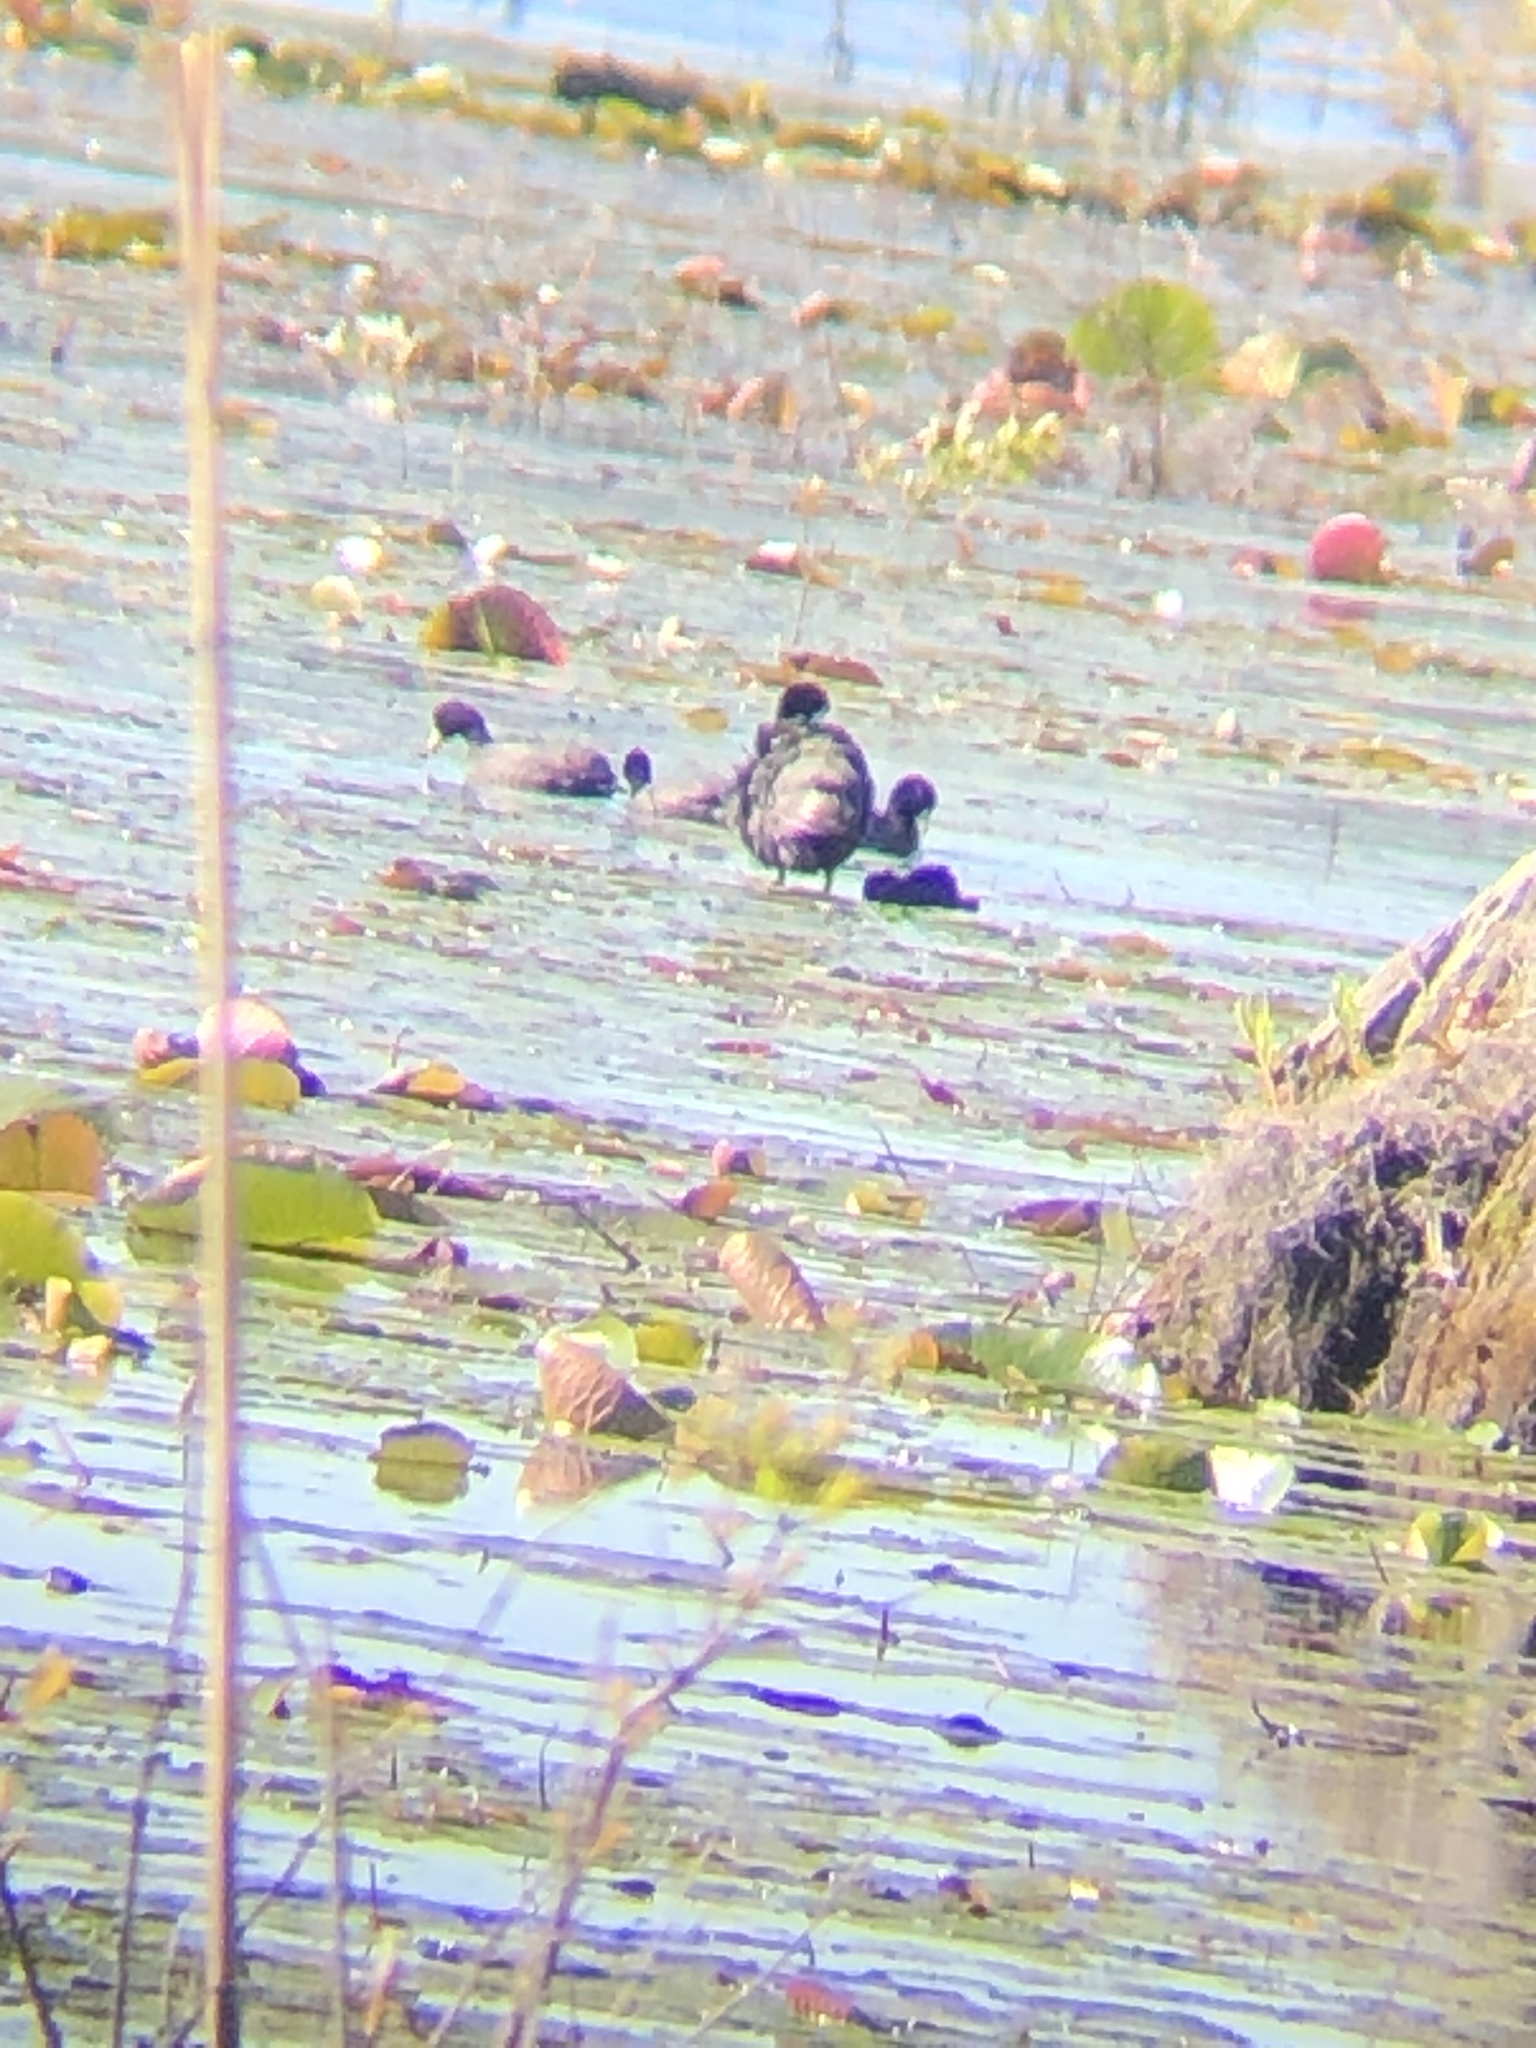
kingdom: Animalia
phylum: Chordata
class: Aves
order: Gruiformes
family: Rallidae
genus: Fulica
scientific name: Fulica americana
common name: American coot
